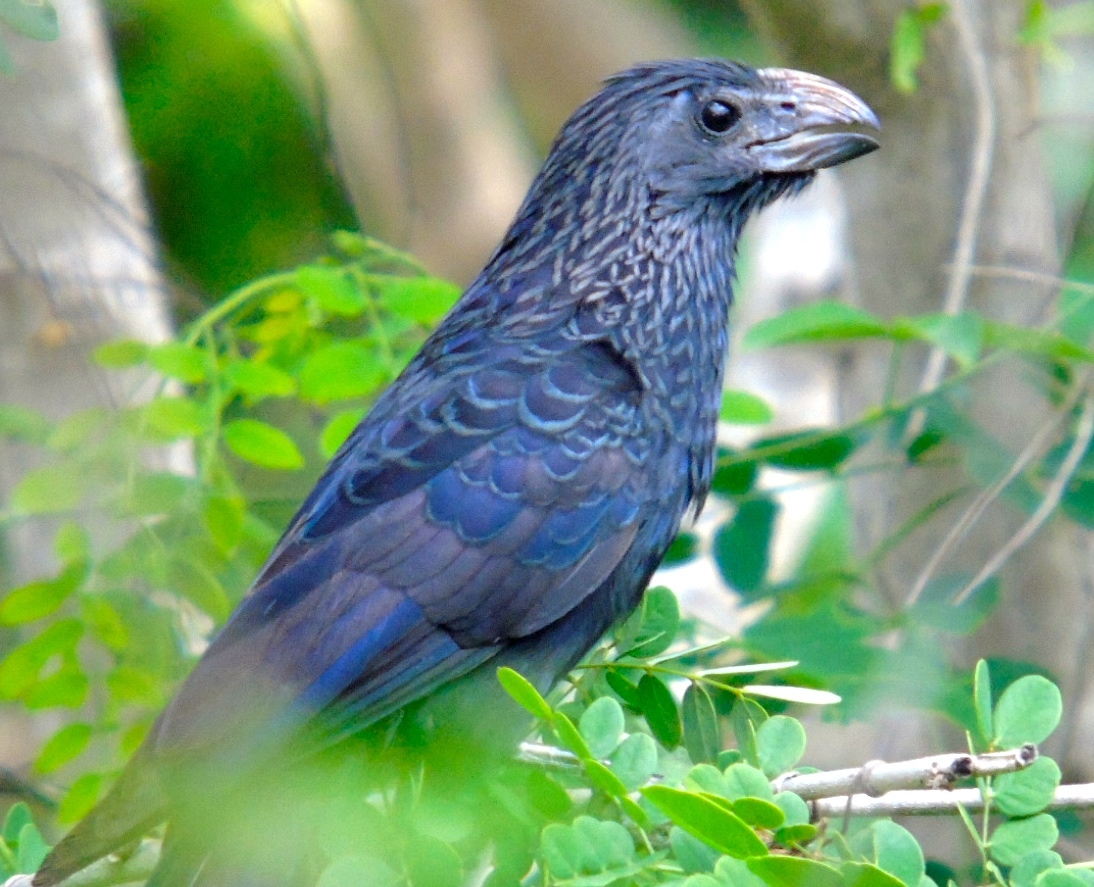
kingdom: Animalia
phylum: Chordata
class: Aves
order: Cuculiformes
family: Cuculidae
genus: Crotophaga
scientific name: Crotophaga sulcirostris
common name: Groove-billed ani
